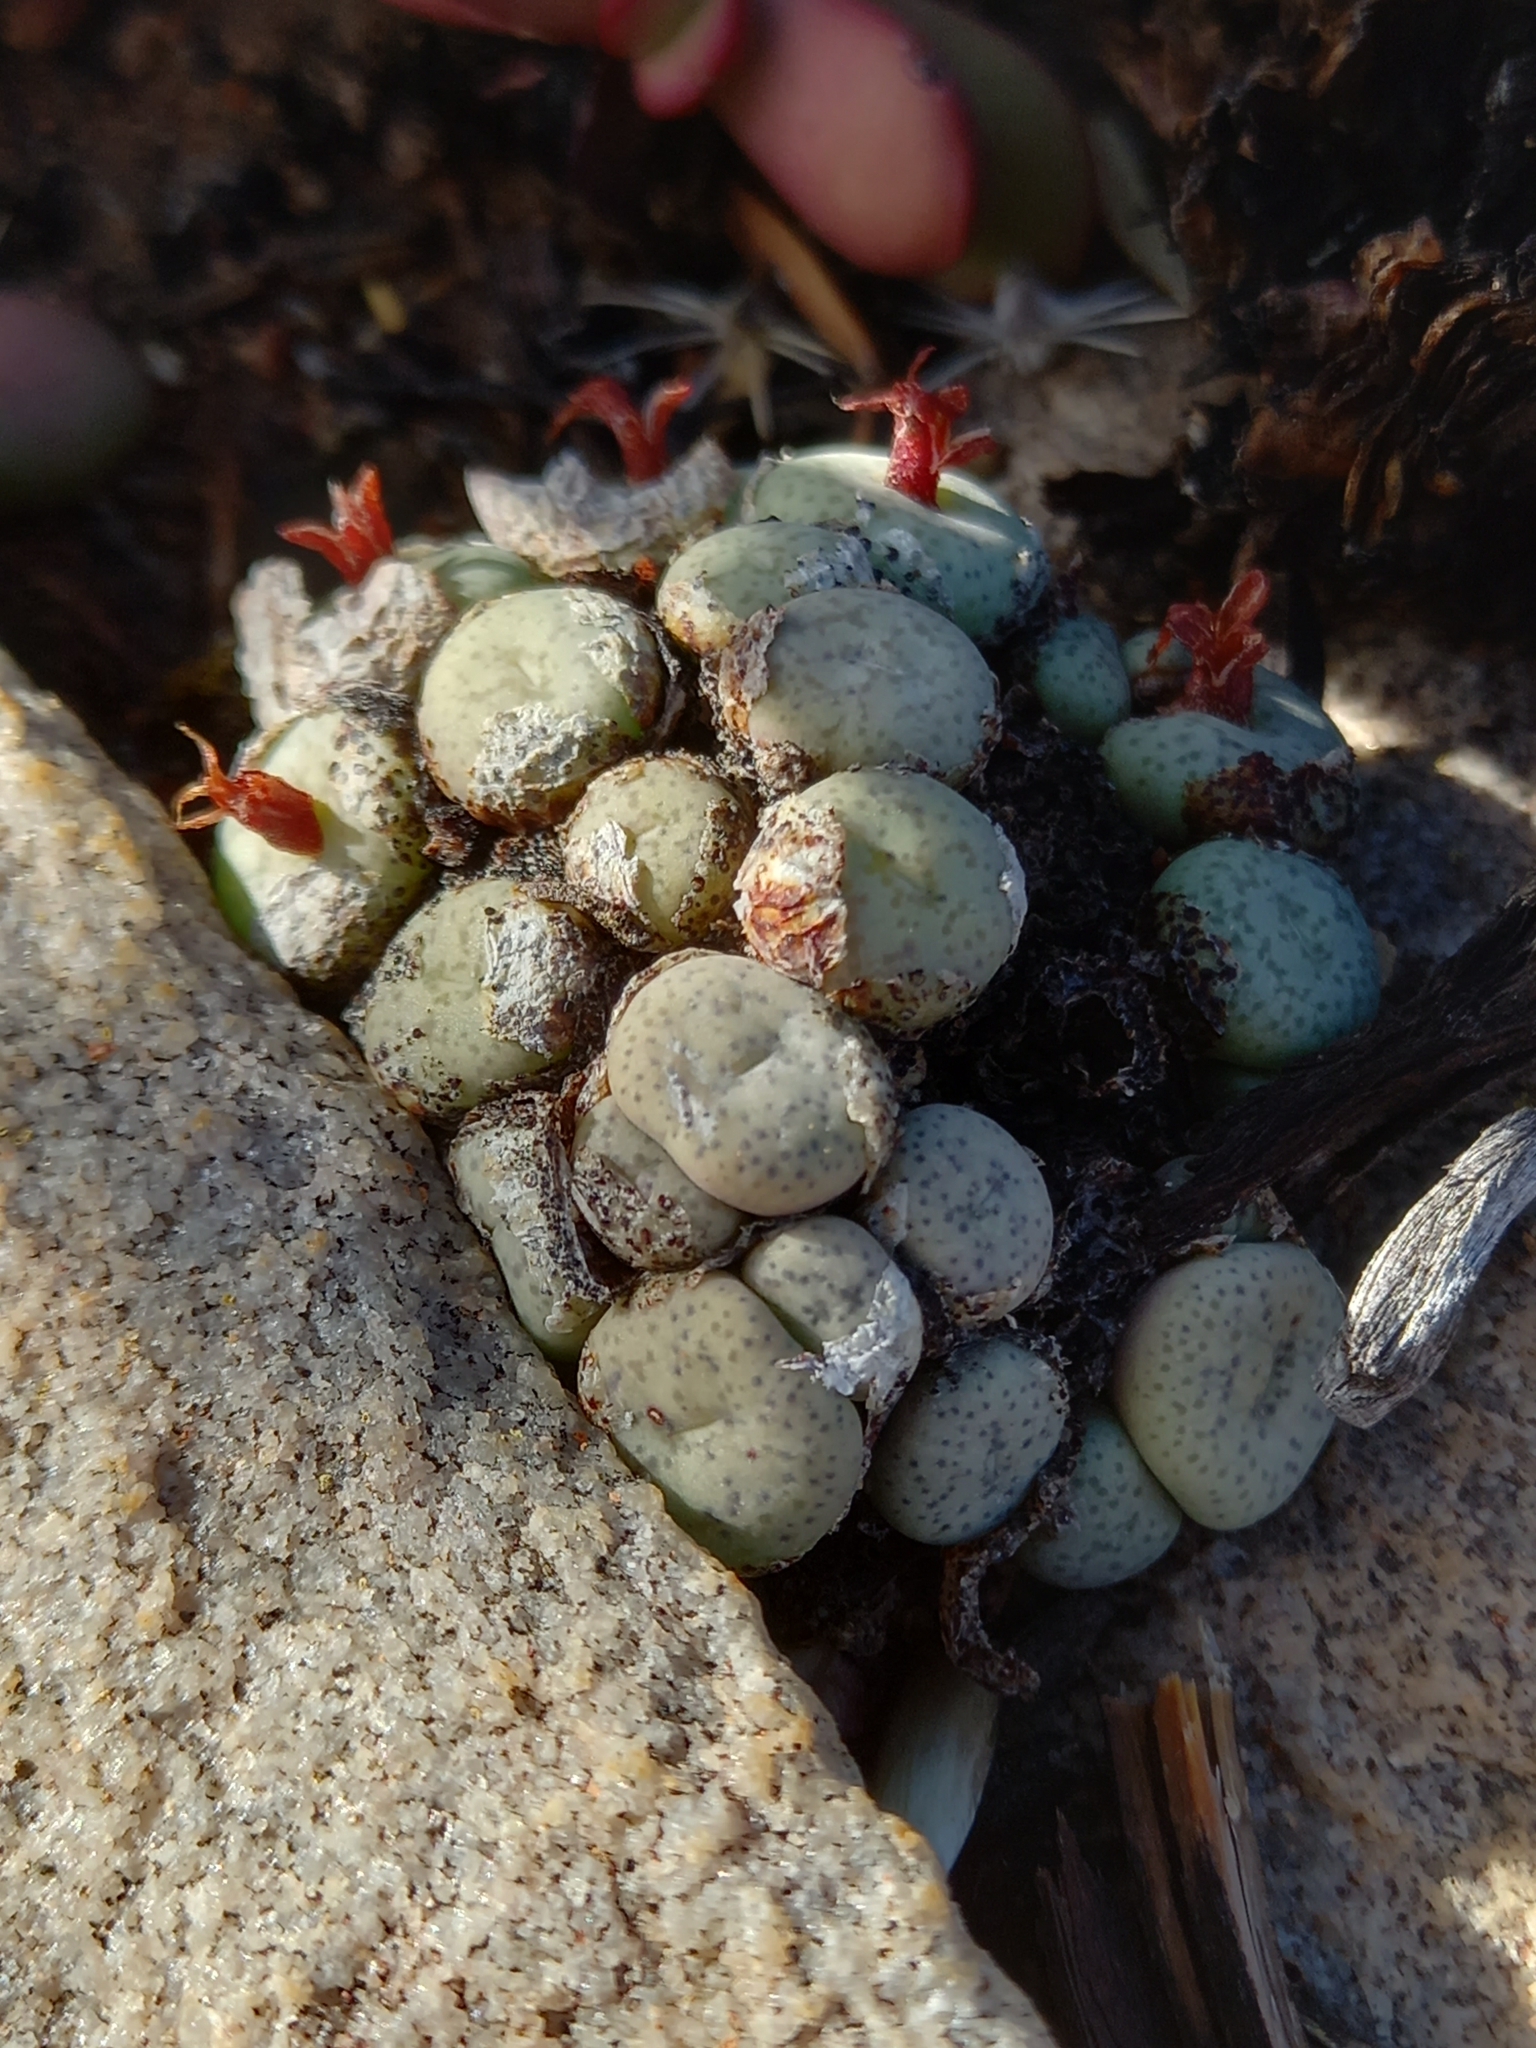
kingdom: Plantae
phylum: Tracheophyta
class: Magnoliopsida
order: Caryophyllales
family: Aizoaceae
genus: Conophytum
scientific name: Conophytum truncatum
